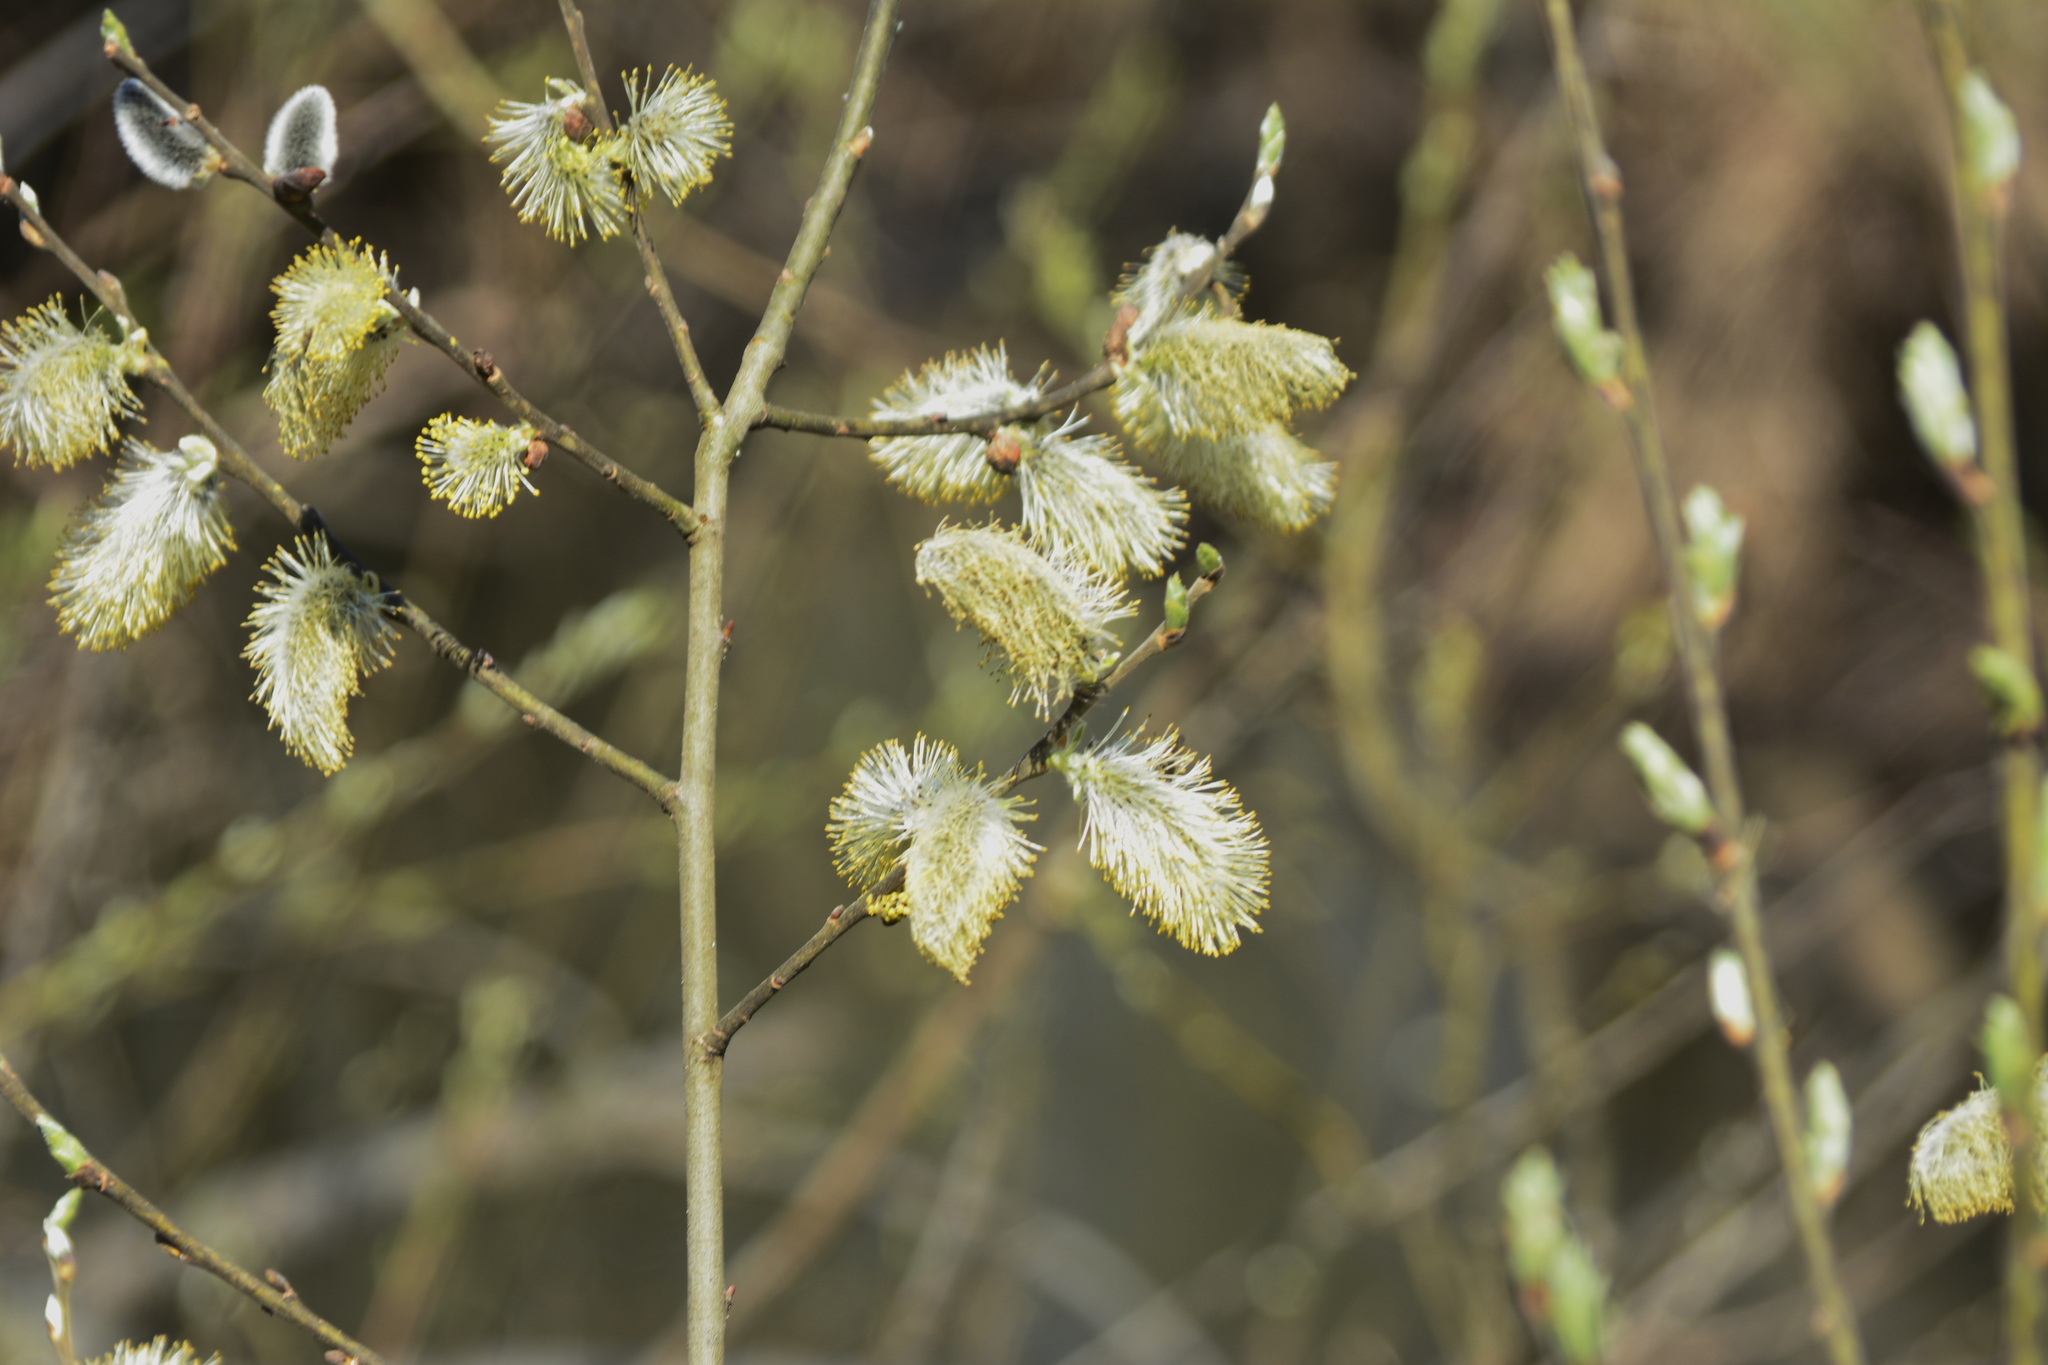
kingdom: Plantae
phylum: Tracheophyta
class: Magnoliopsida
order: Malpighiales
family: Salicaceae
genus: Salix
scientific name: Salix cinerea
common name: Common sallow
